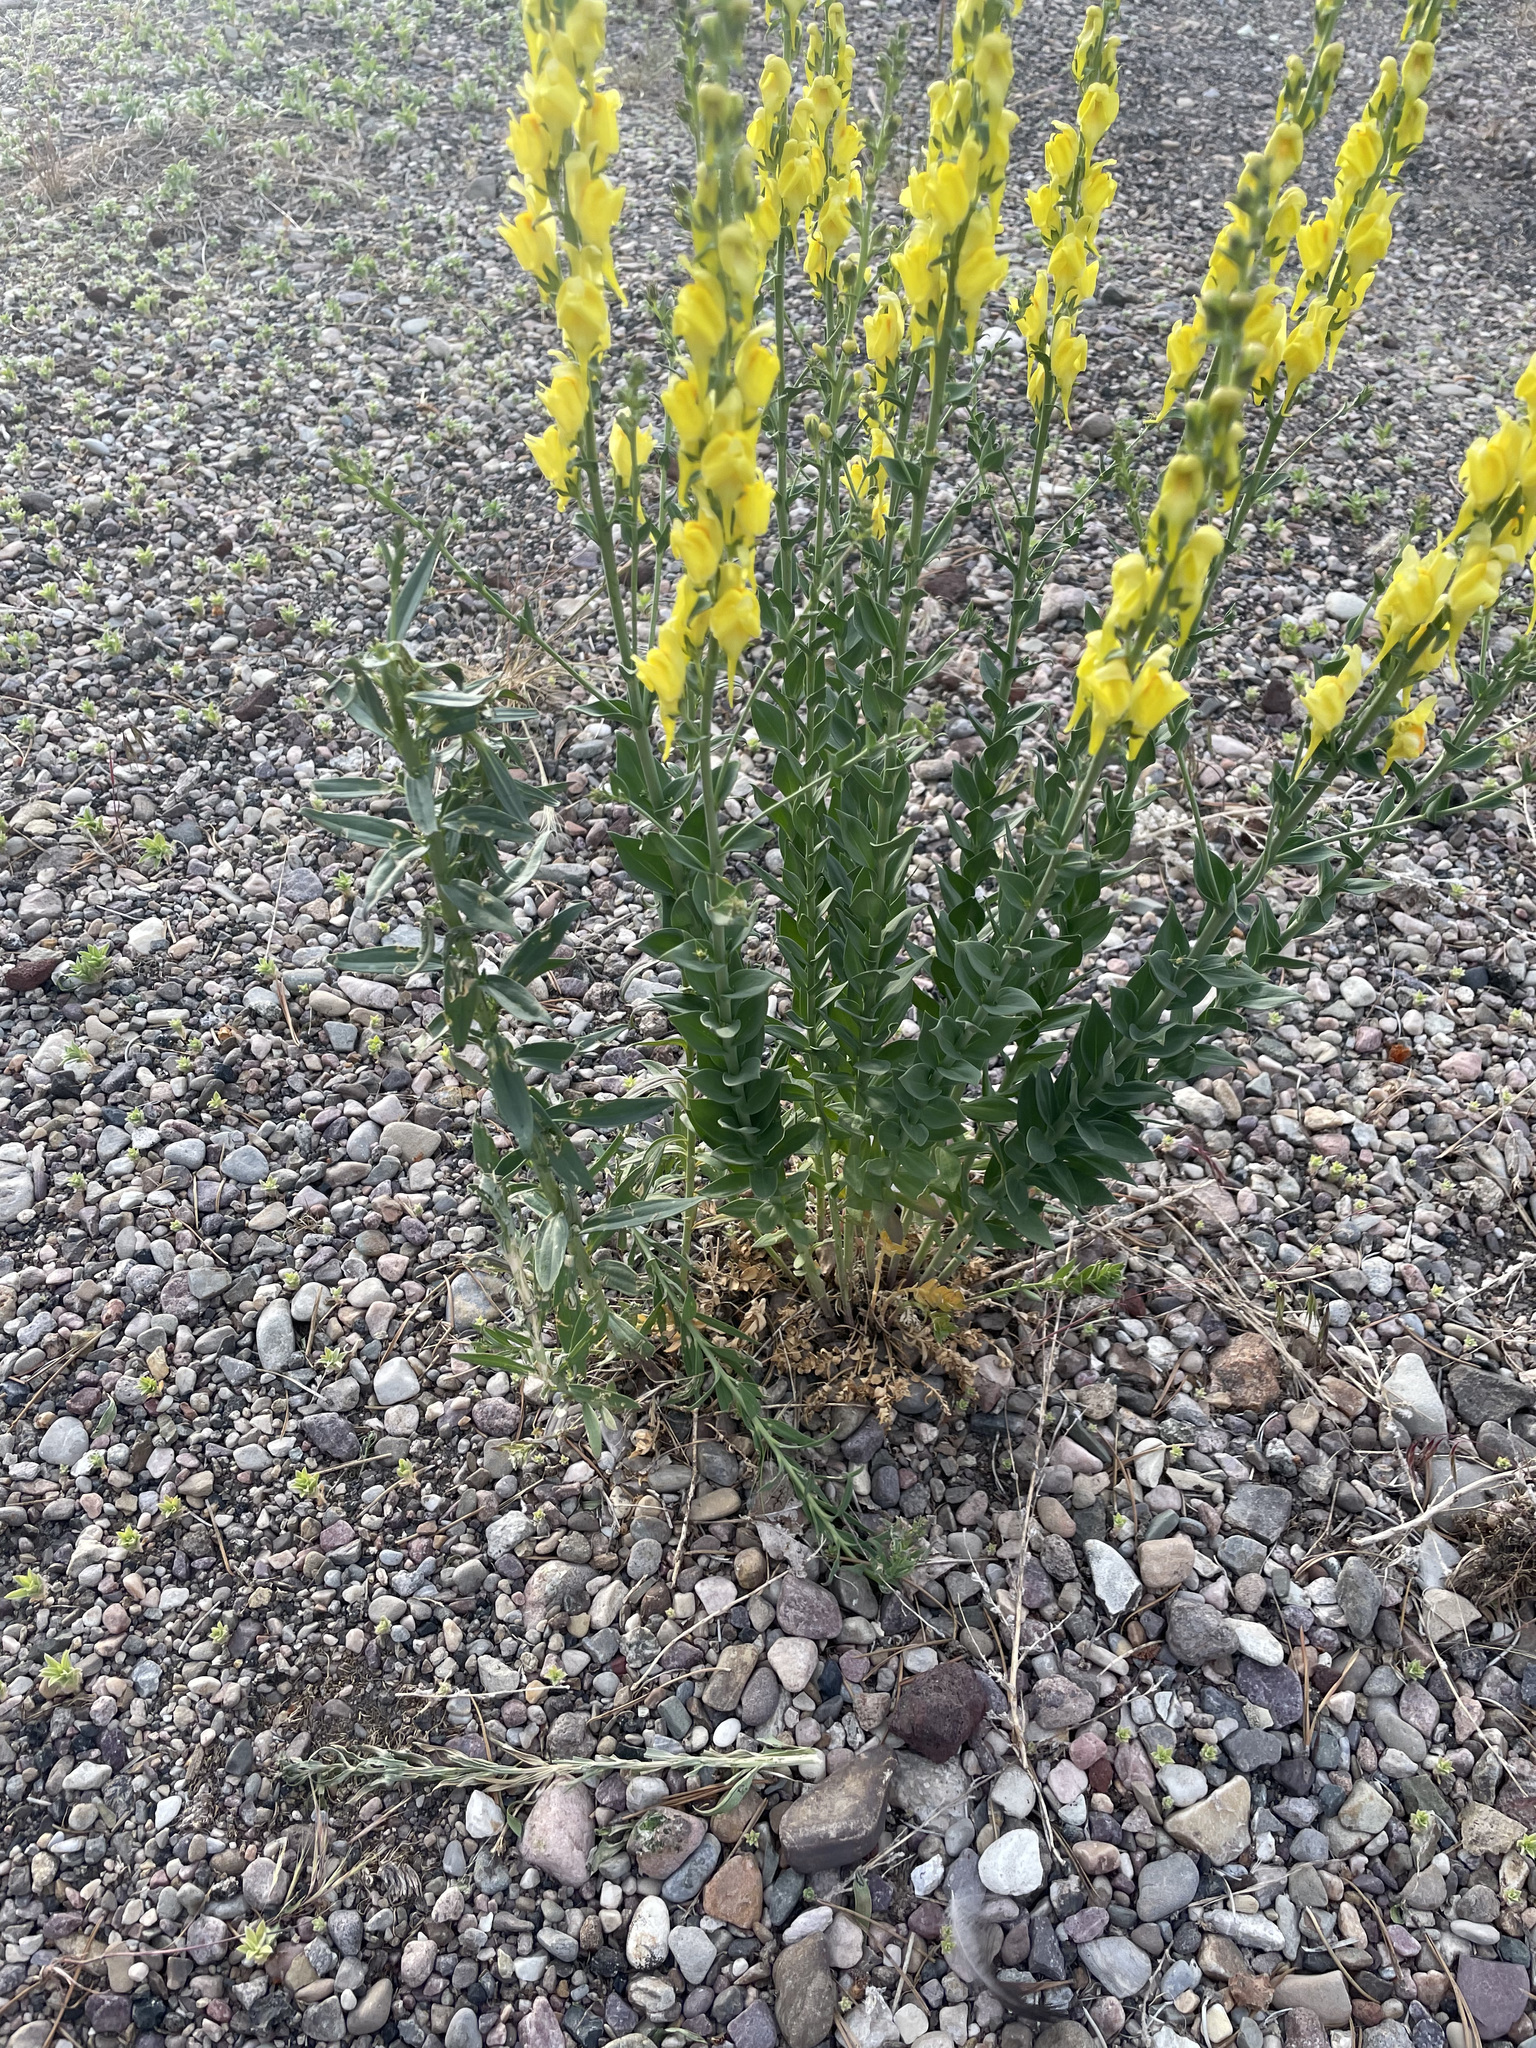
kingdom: Plantae
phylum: Tracheophyta
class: Magnoliopsida
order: Lamiales
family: Plantaginaceae
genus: Linaria
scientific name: Linaria dalmatica
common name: Dalmatian toadflax
